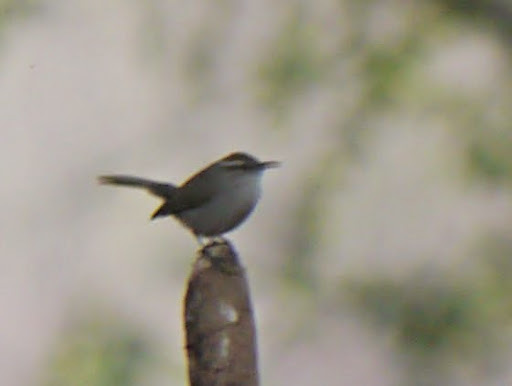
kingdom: Animalia
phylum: Chordata
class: Aves
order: Passeriformes
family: Troglodytidae
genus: Thryomanes
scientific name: Thryomanes bewickii
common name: Bewick's wren
